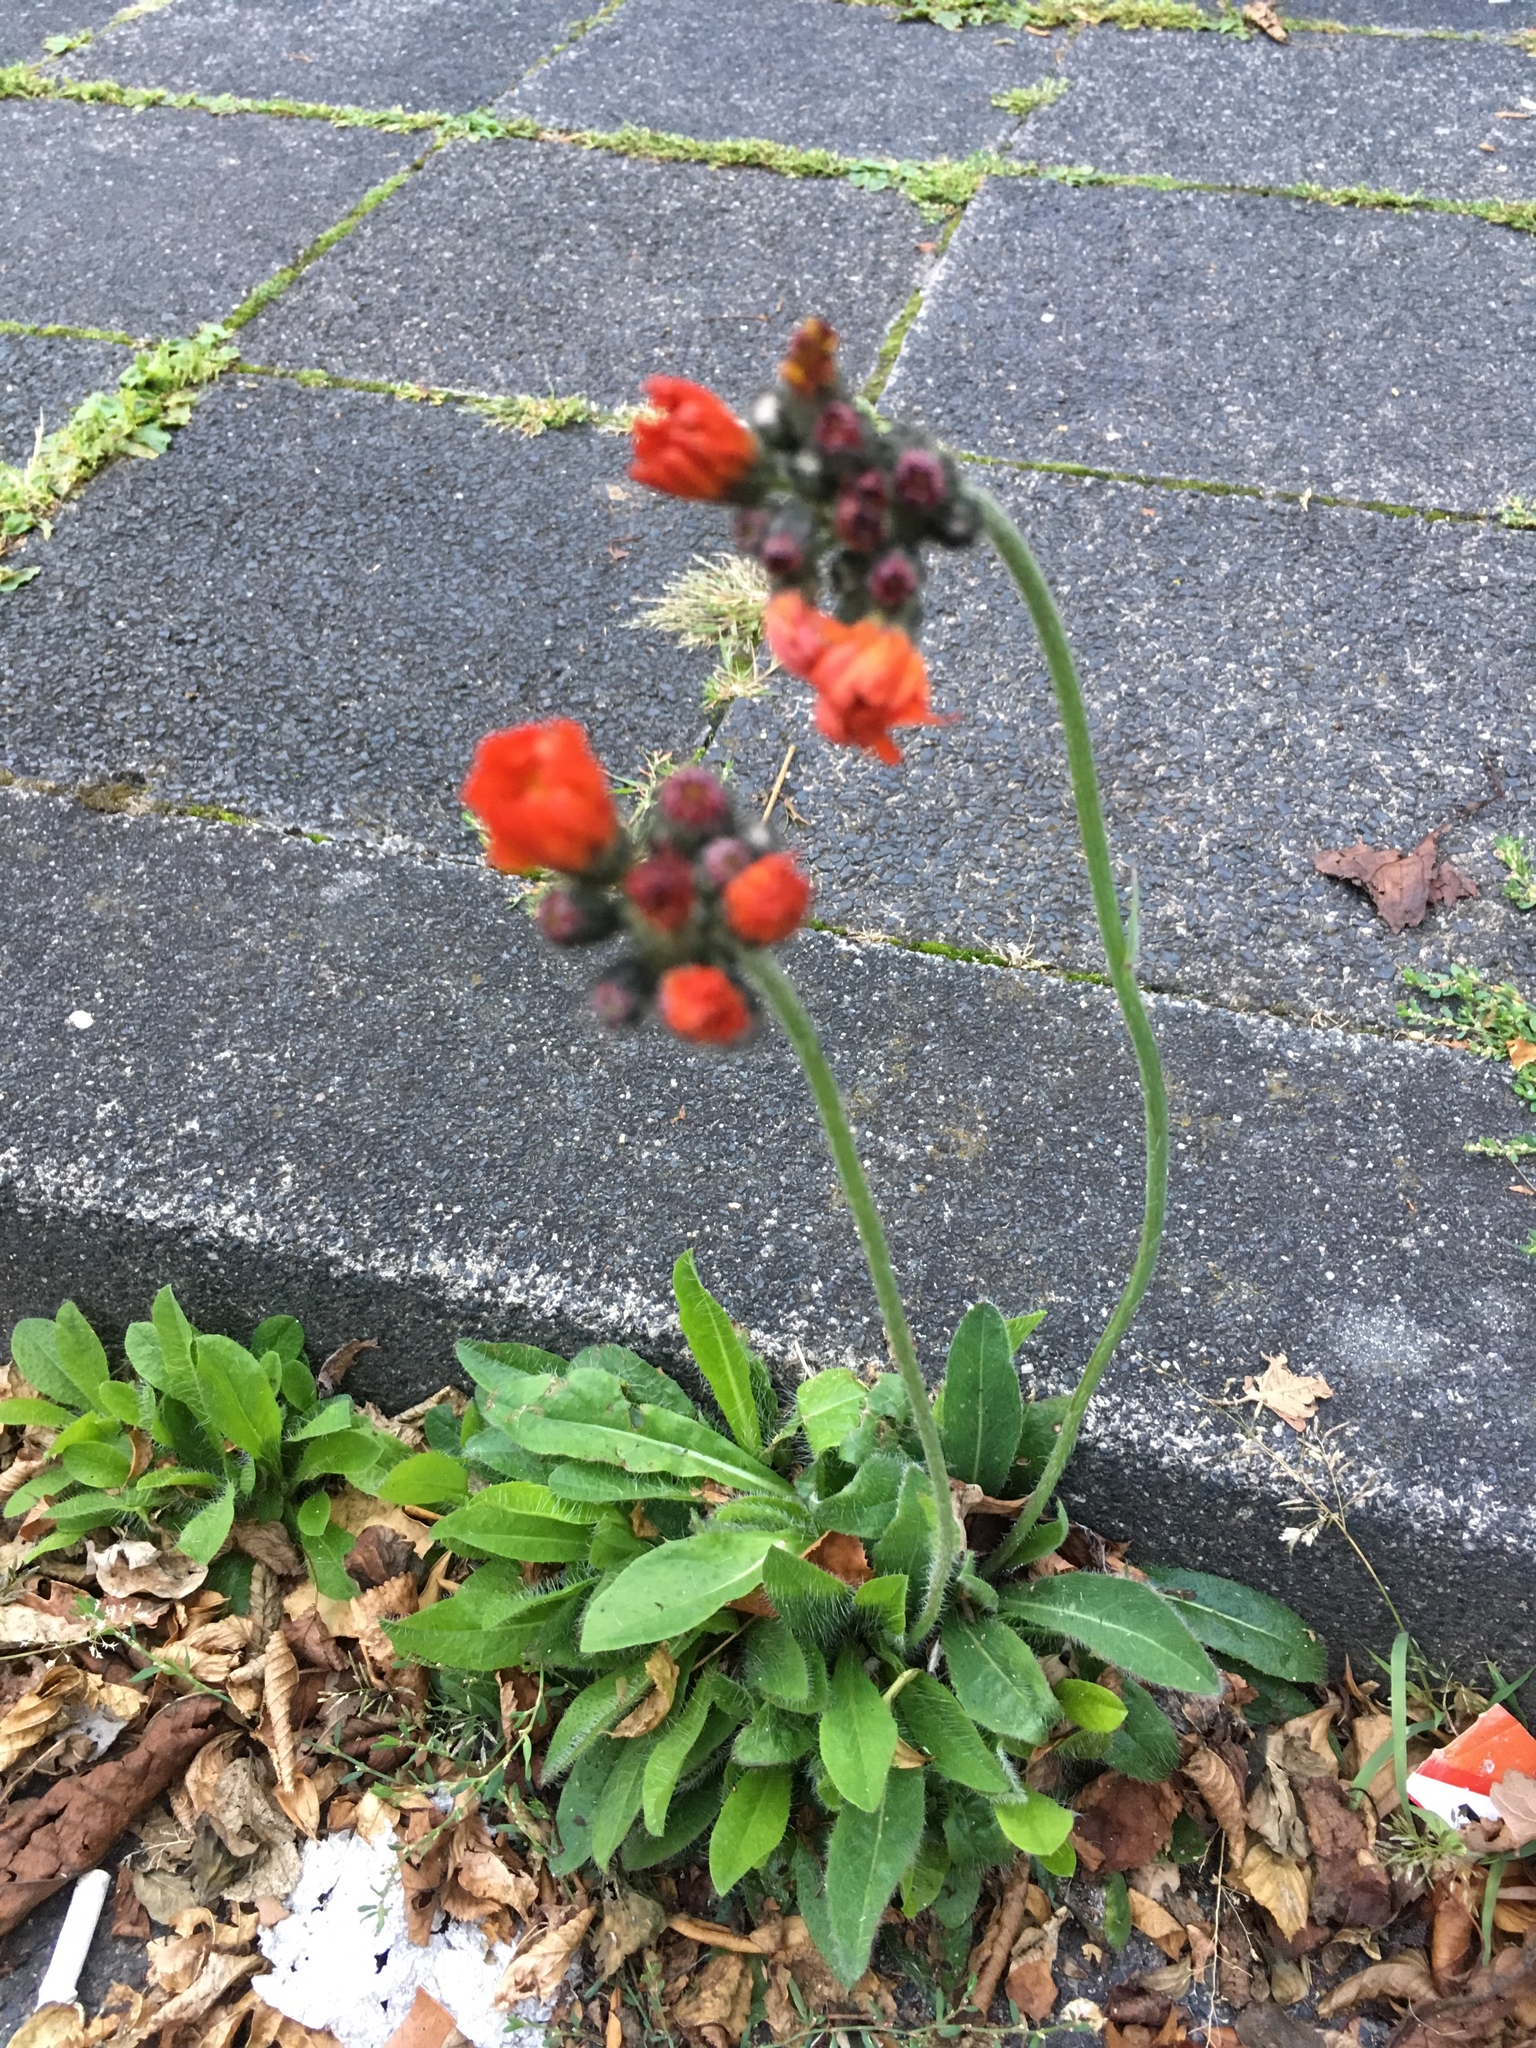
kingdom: Plantae
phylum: Tracheophyta
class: Magnoliopsida
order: Asterales
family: Asteraceae
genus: Pilosella
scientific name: Pilosella aurantiaca
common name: Fox-and-cubs
